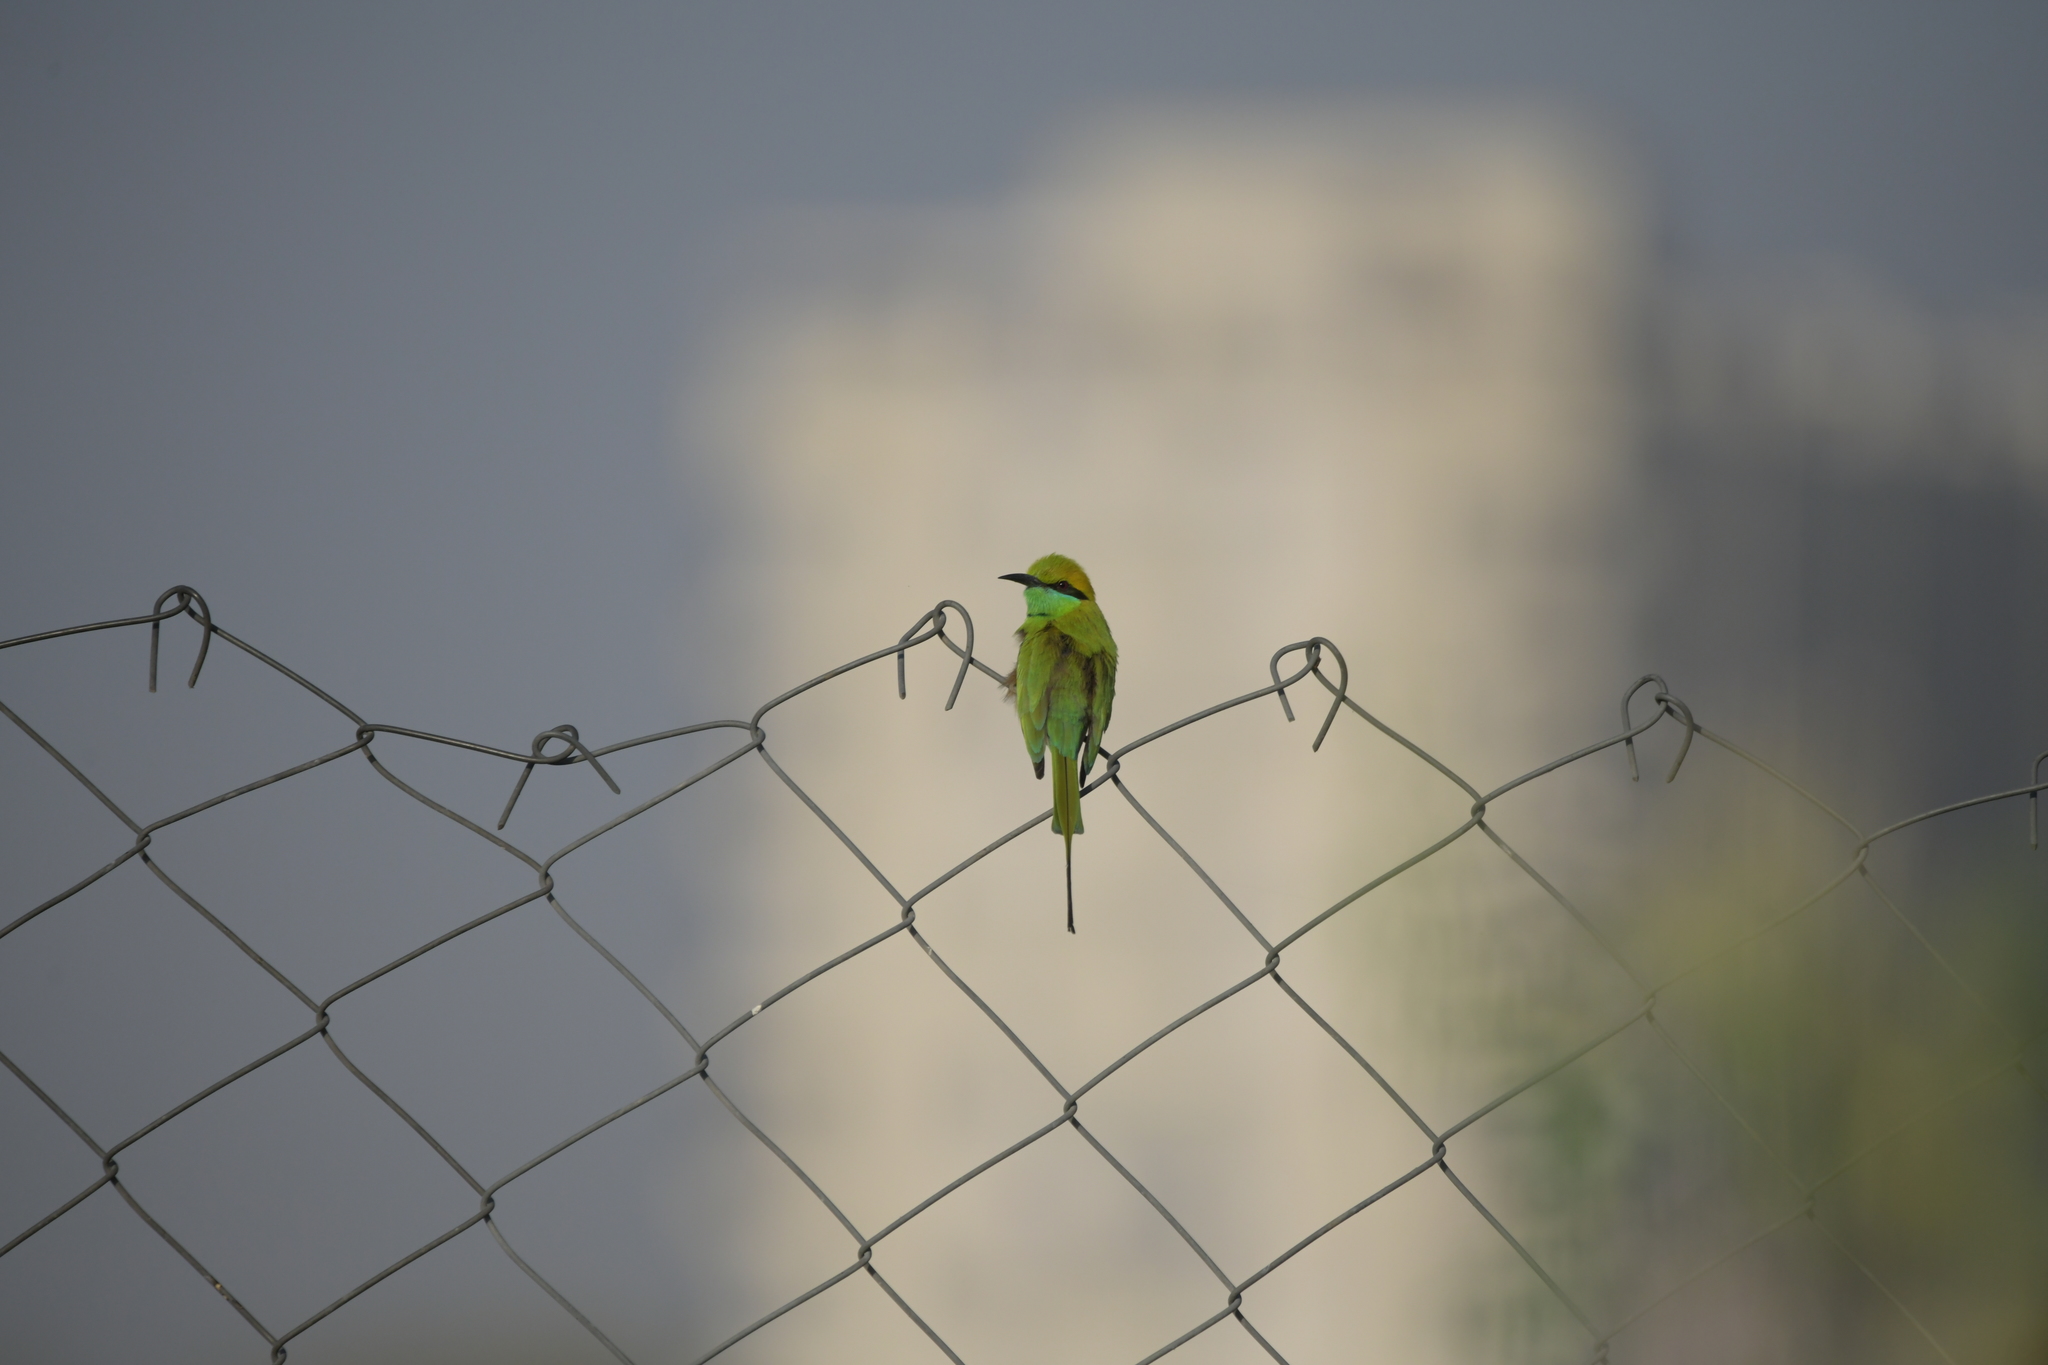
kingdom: Animalia
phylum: Chordata
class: Aves
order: Coraciiformes
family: Meropidae
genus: Merops
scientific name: Merops orientalis
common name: Green bee-eater
